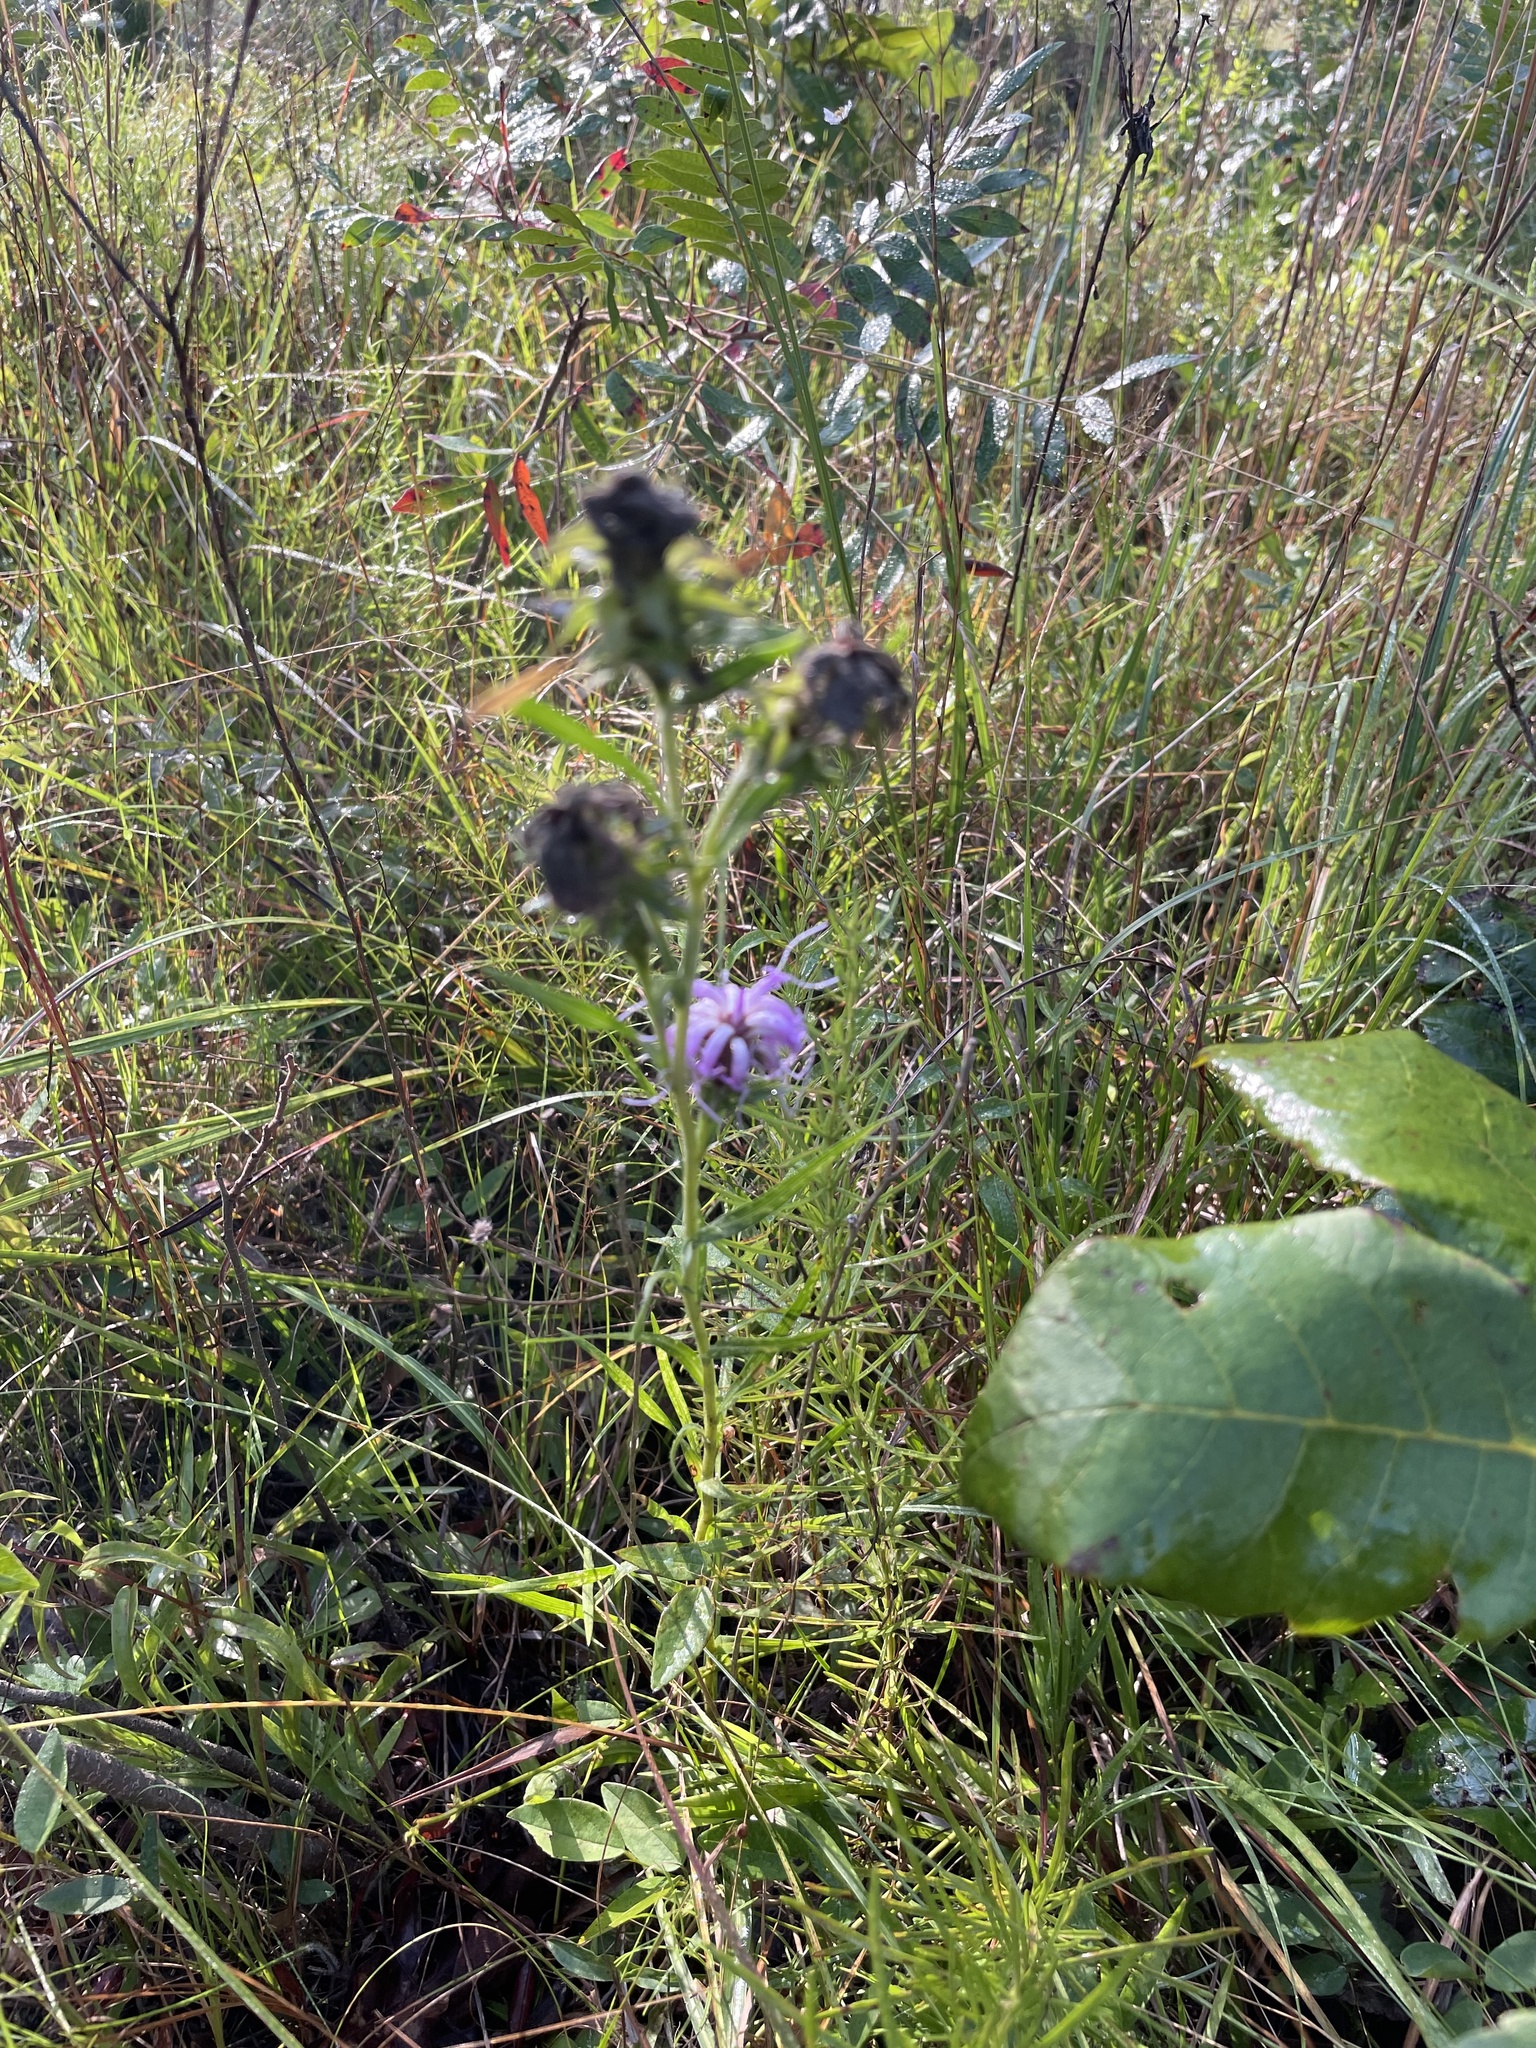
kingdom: Plantae
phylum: Tracheophyta
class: Magnoliopsida
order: Asterales
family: Asteraceae
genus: Liatris
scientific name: Liatris squarrosa
